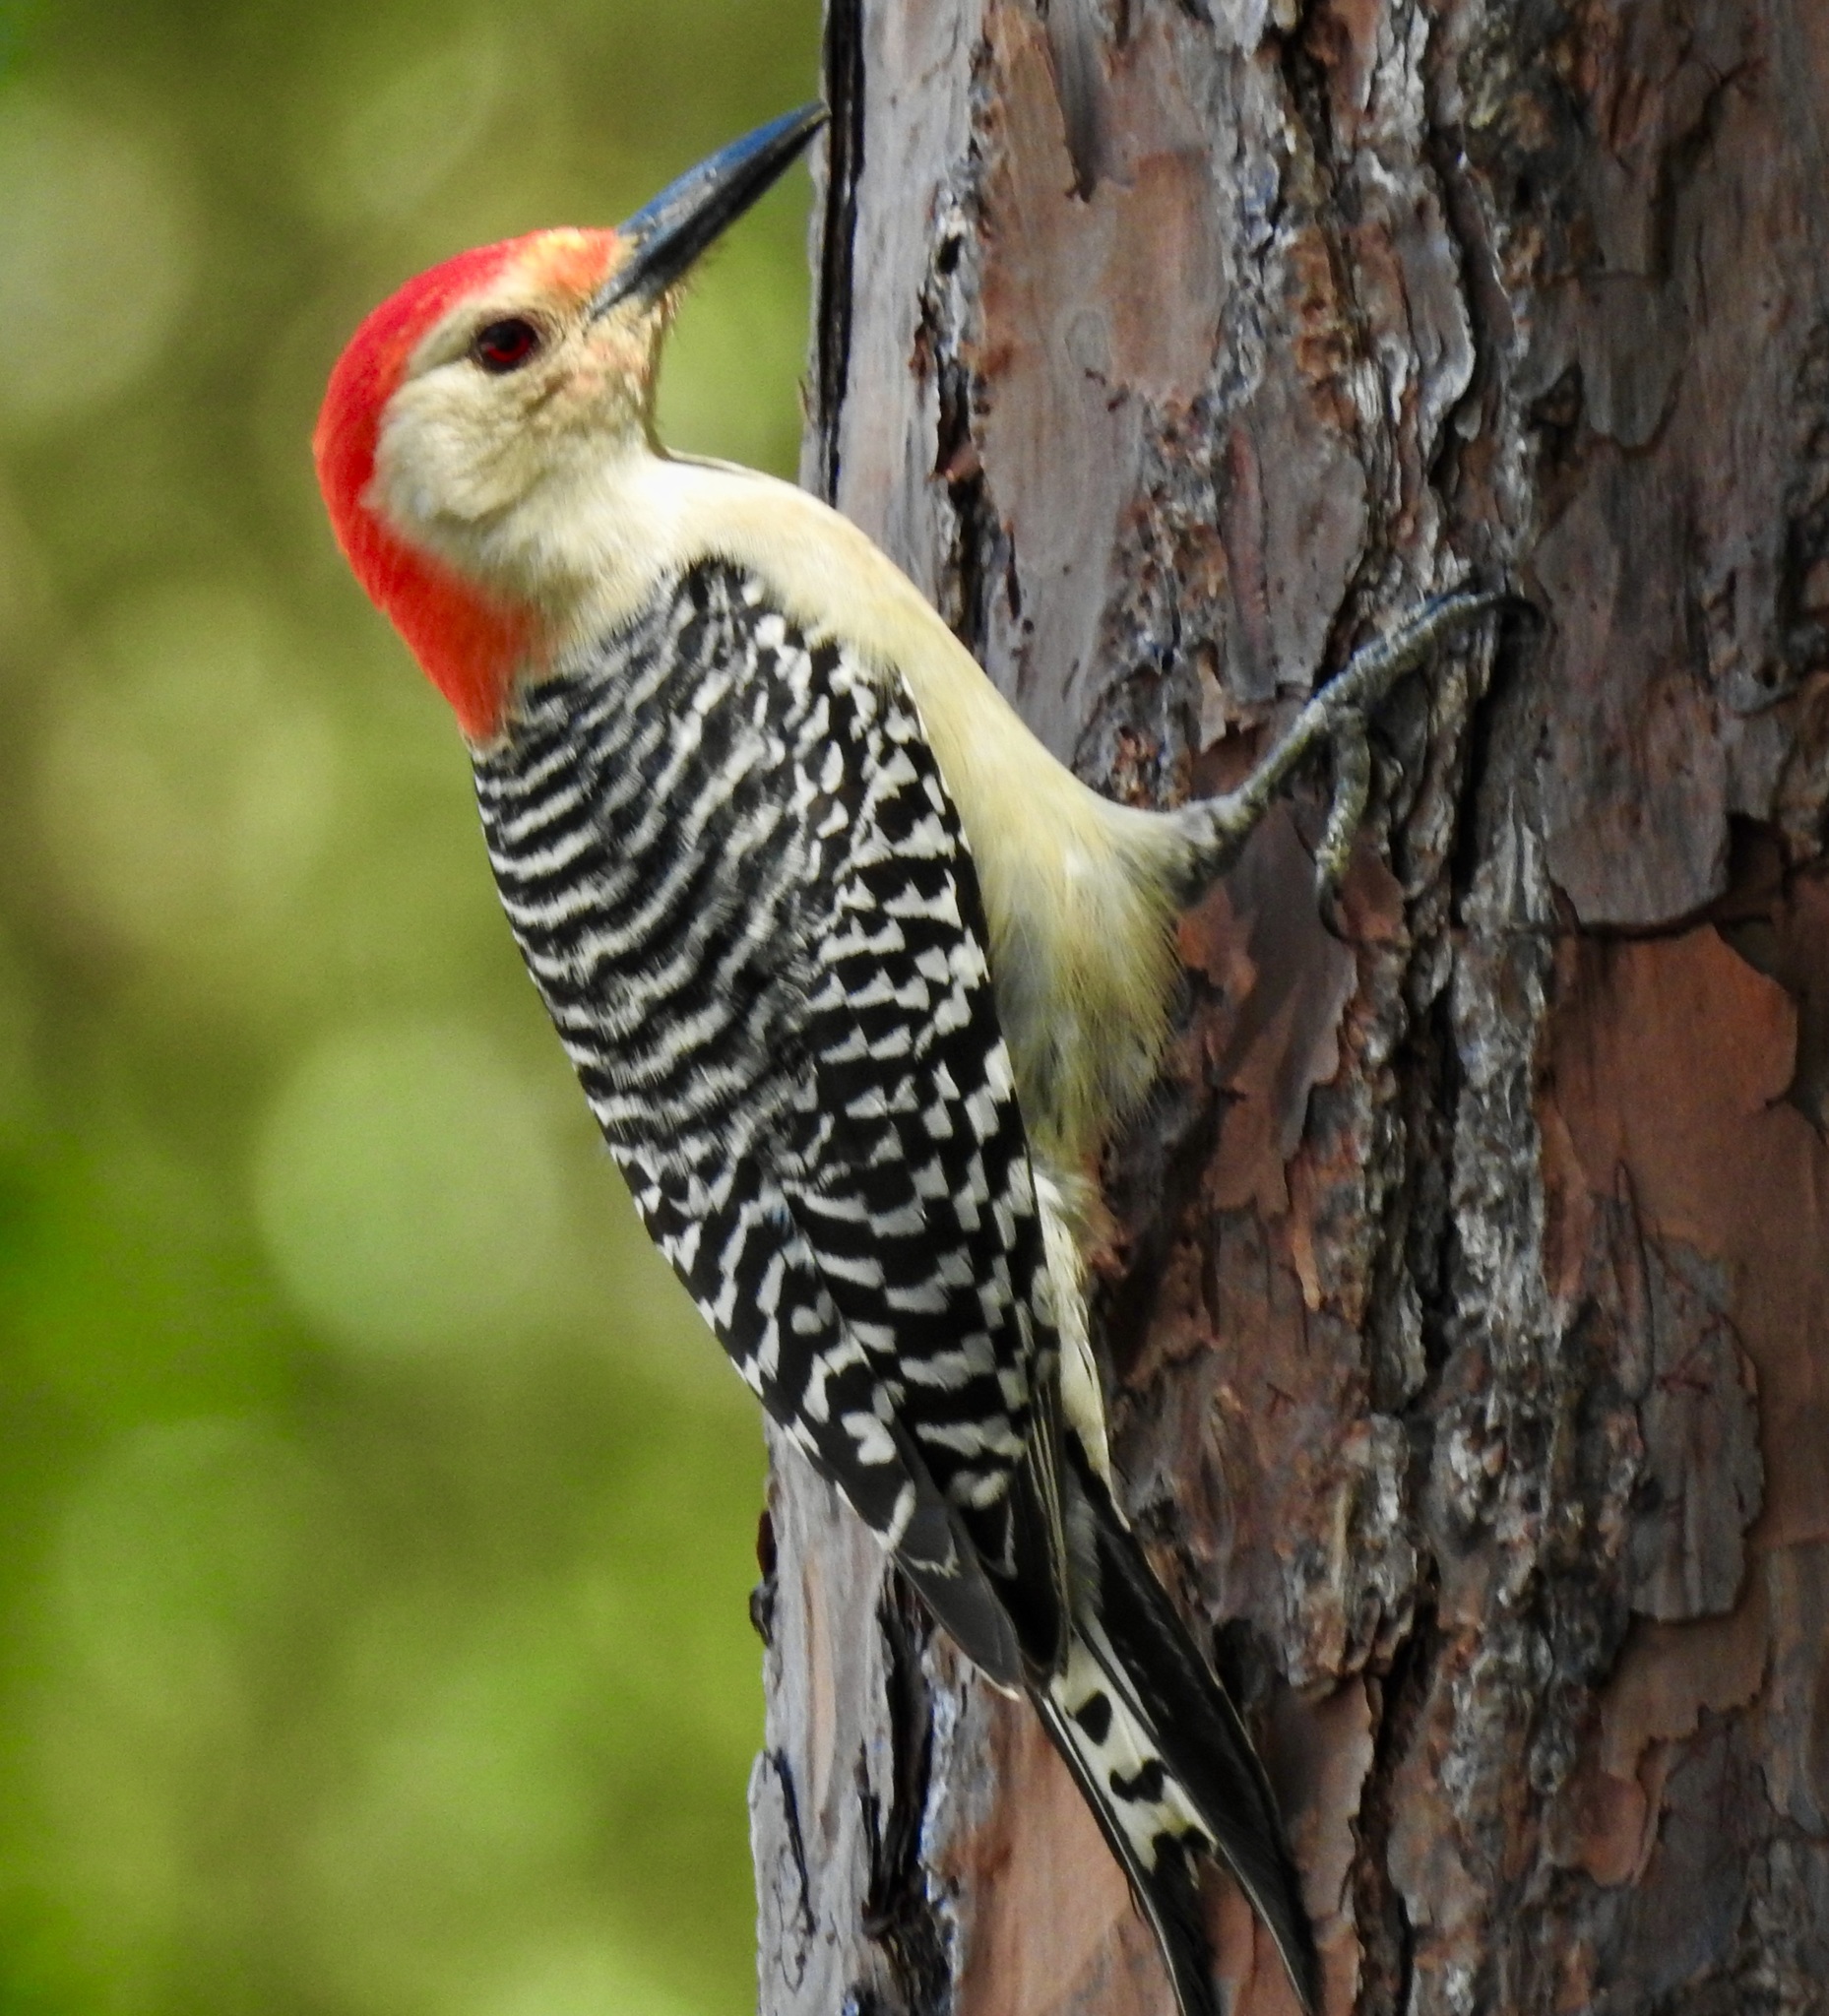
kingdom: Animalia
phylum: Chordata
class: Aves
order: Piciformes
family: Picidae
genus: Melanerpes
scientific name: Melanerpes carolinus
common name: Red-bellied woodpecker
